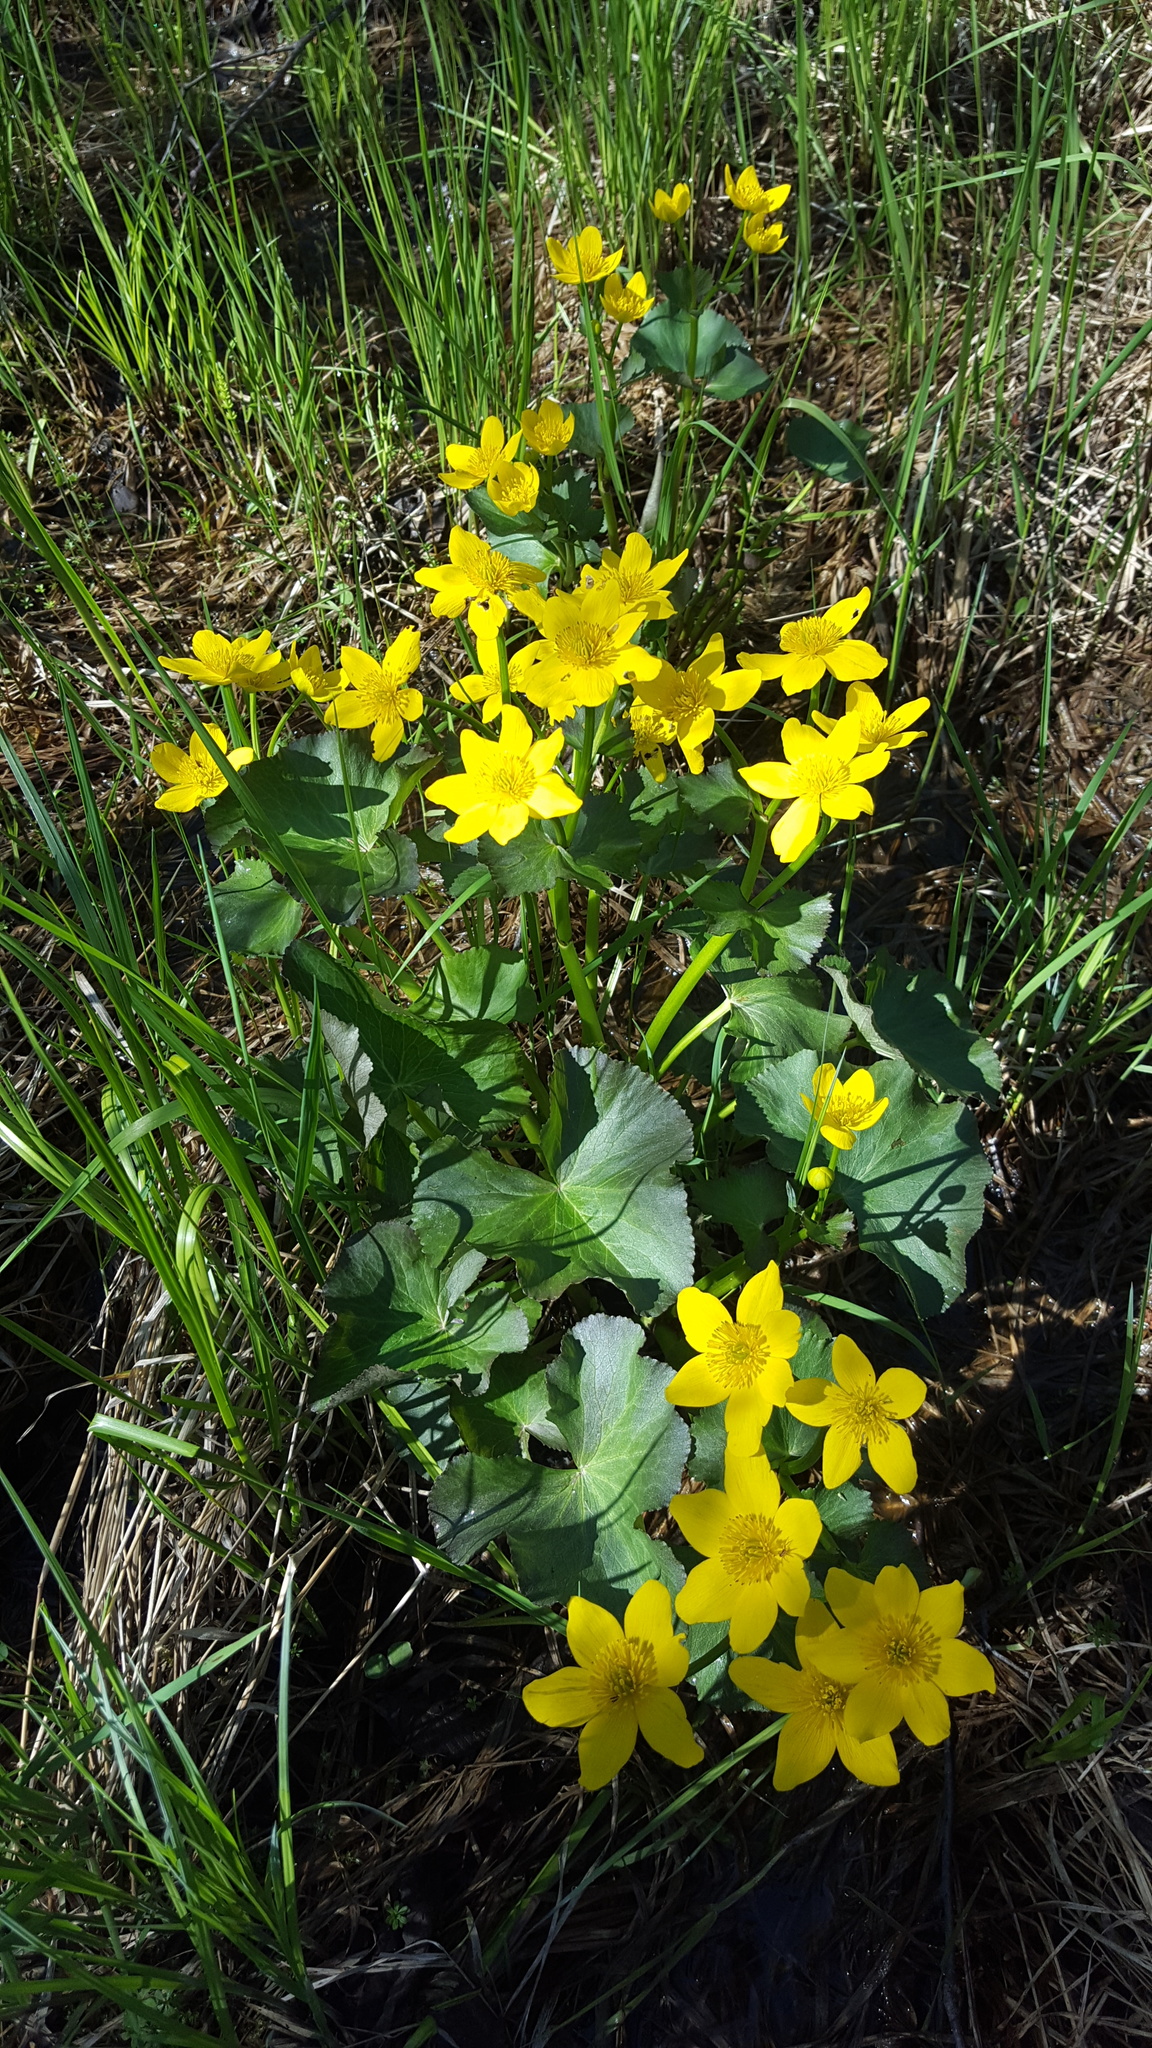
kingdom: Plantae
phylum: Tracheophyta
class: Magnoliopsida
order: Ranunculales
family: Ranunculaceae
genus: Caltha
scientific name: Caltha palustris
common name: Marsh marigold
